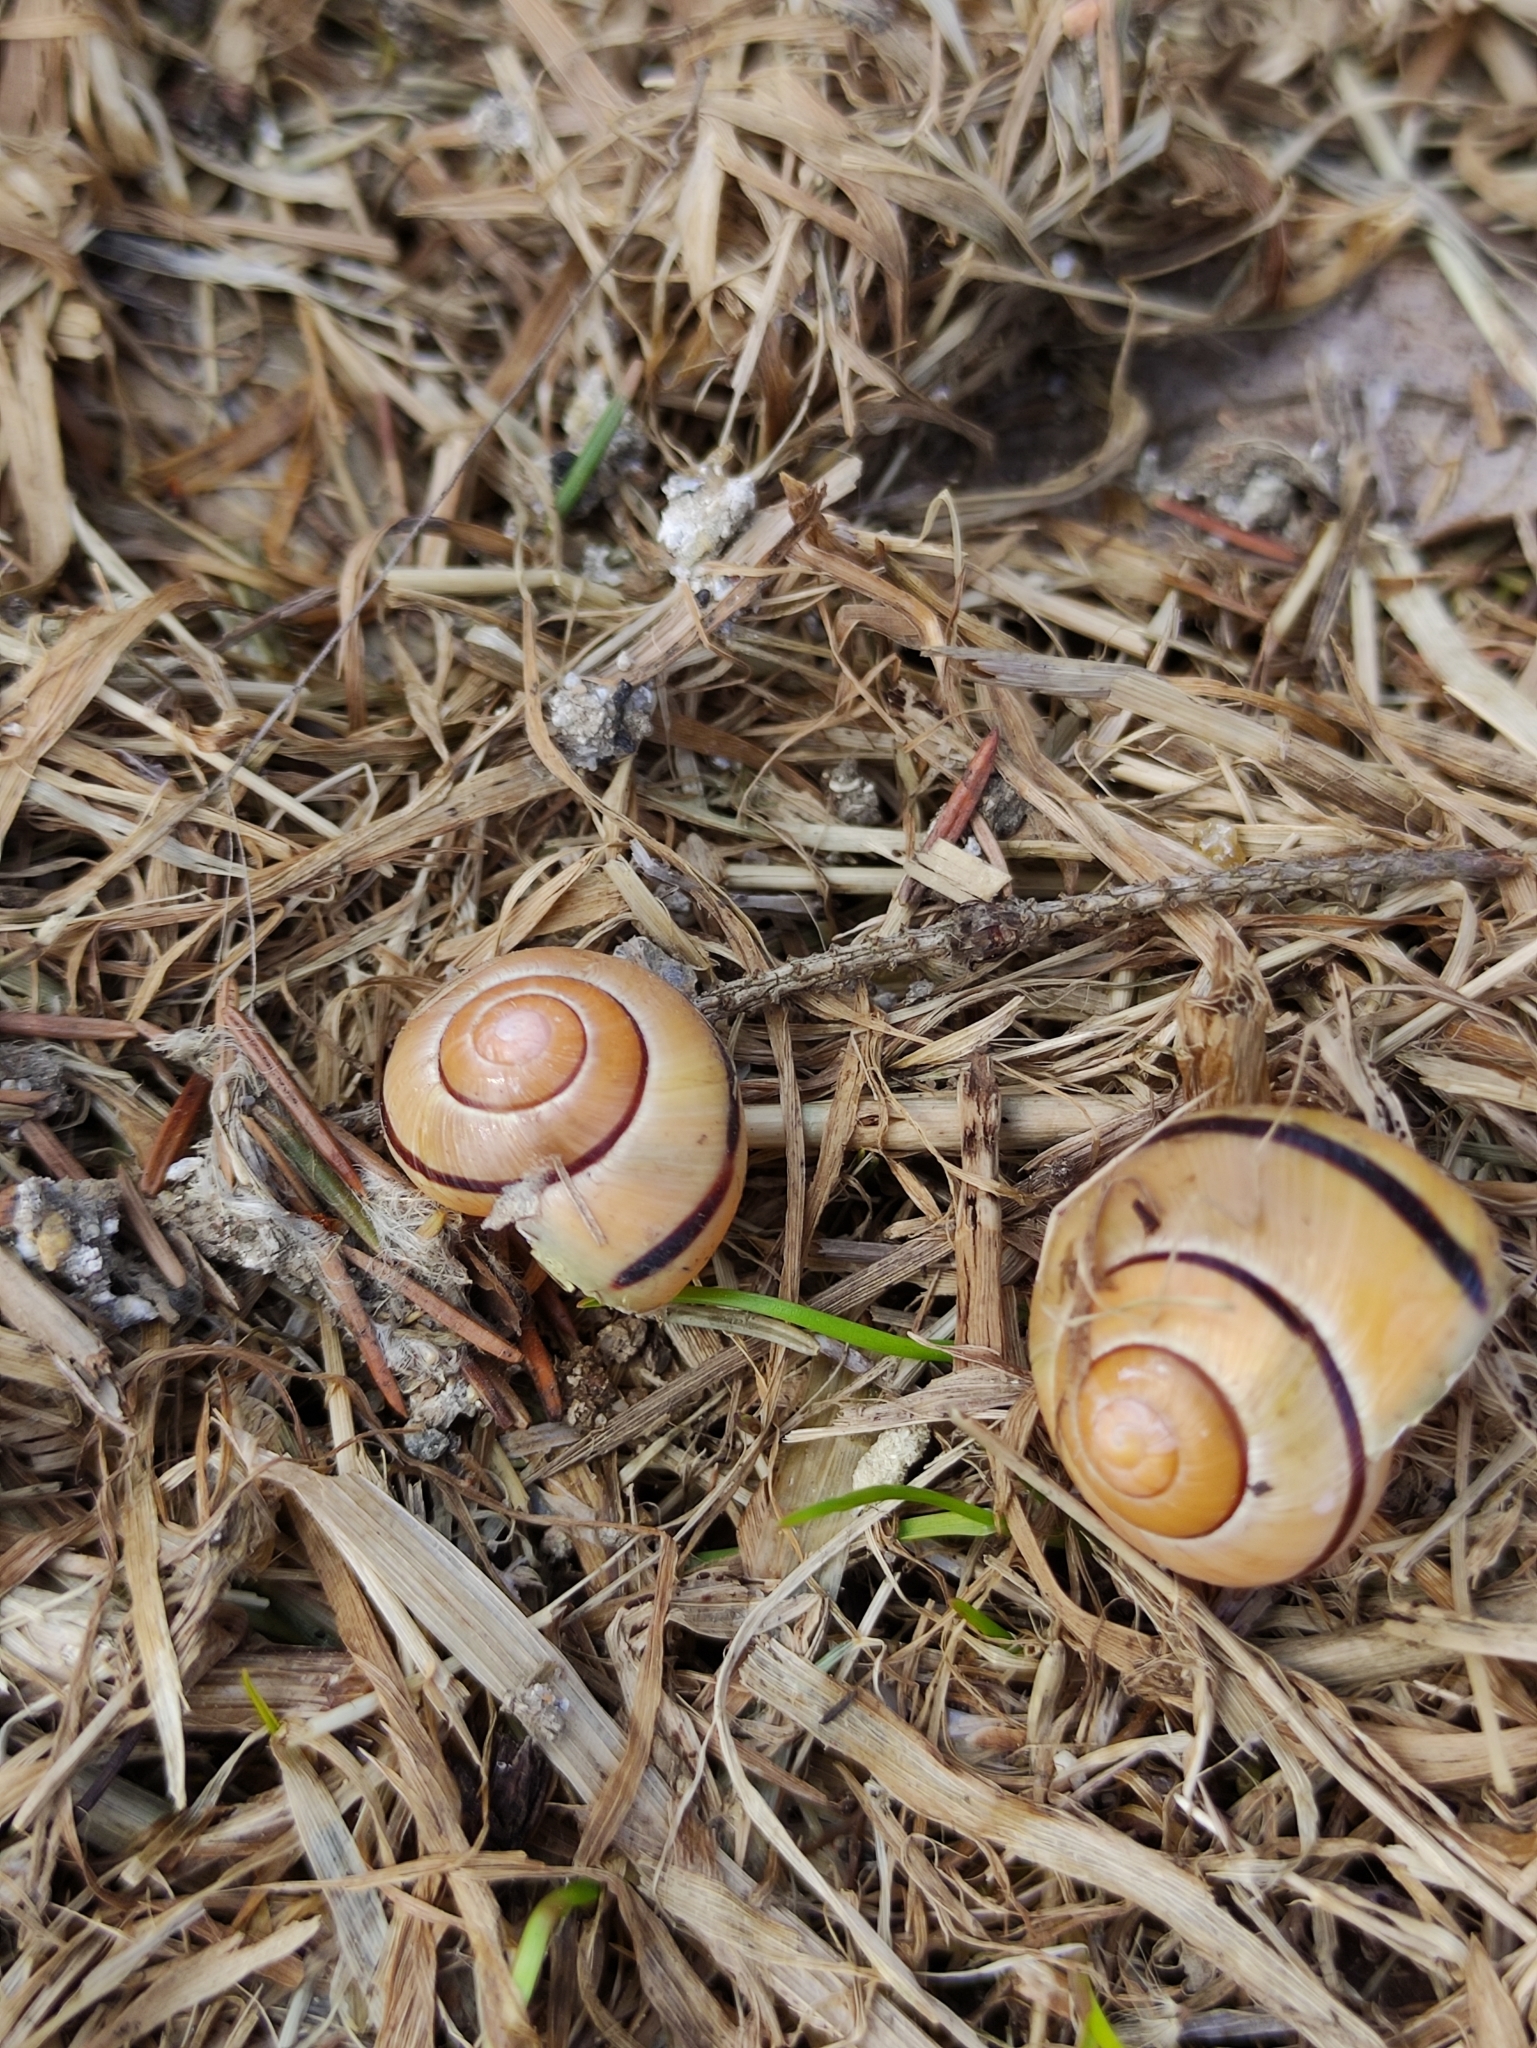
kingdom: Animalia
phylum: Mollusca
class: Gastropoda
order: Stylommatophora
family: Helicidae
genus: Cepaea
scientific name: Cepaea nemoralis
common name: Grovesnail
